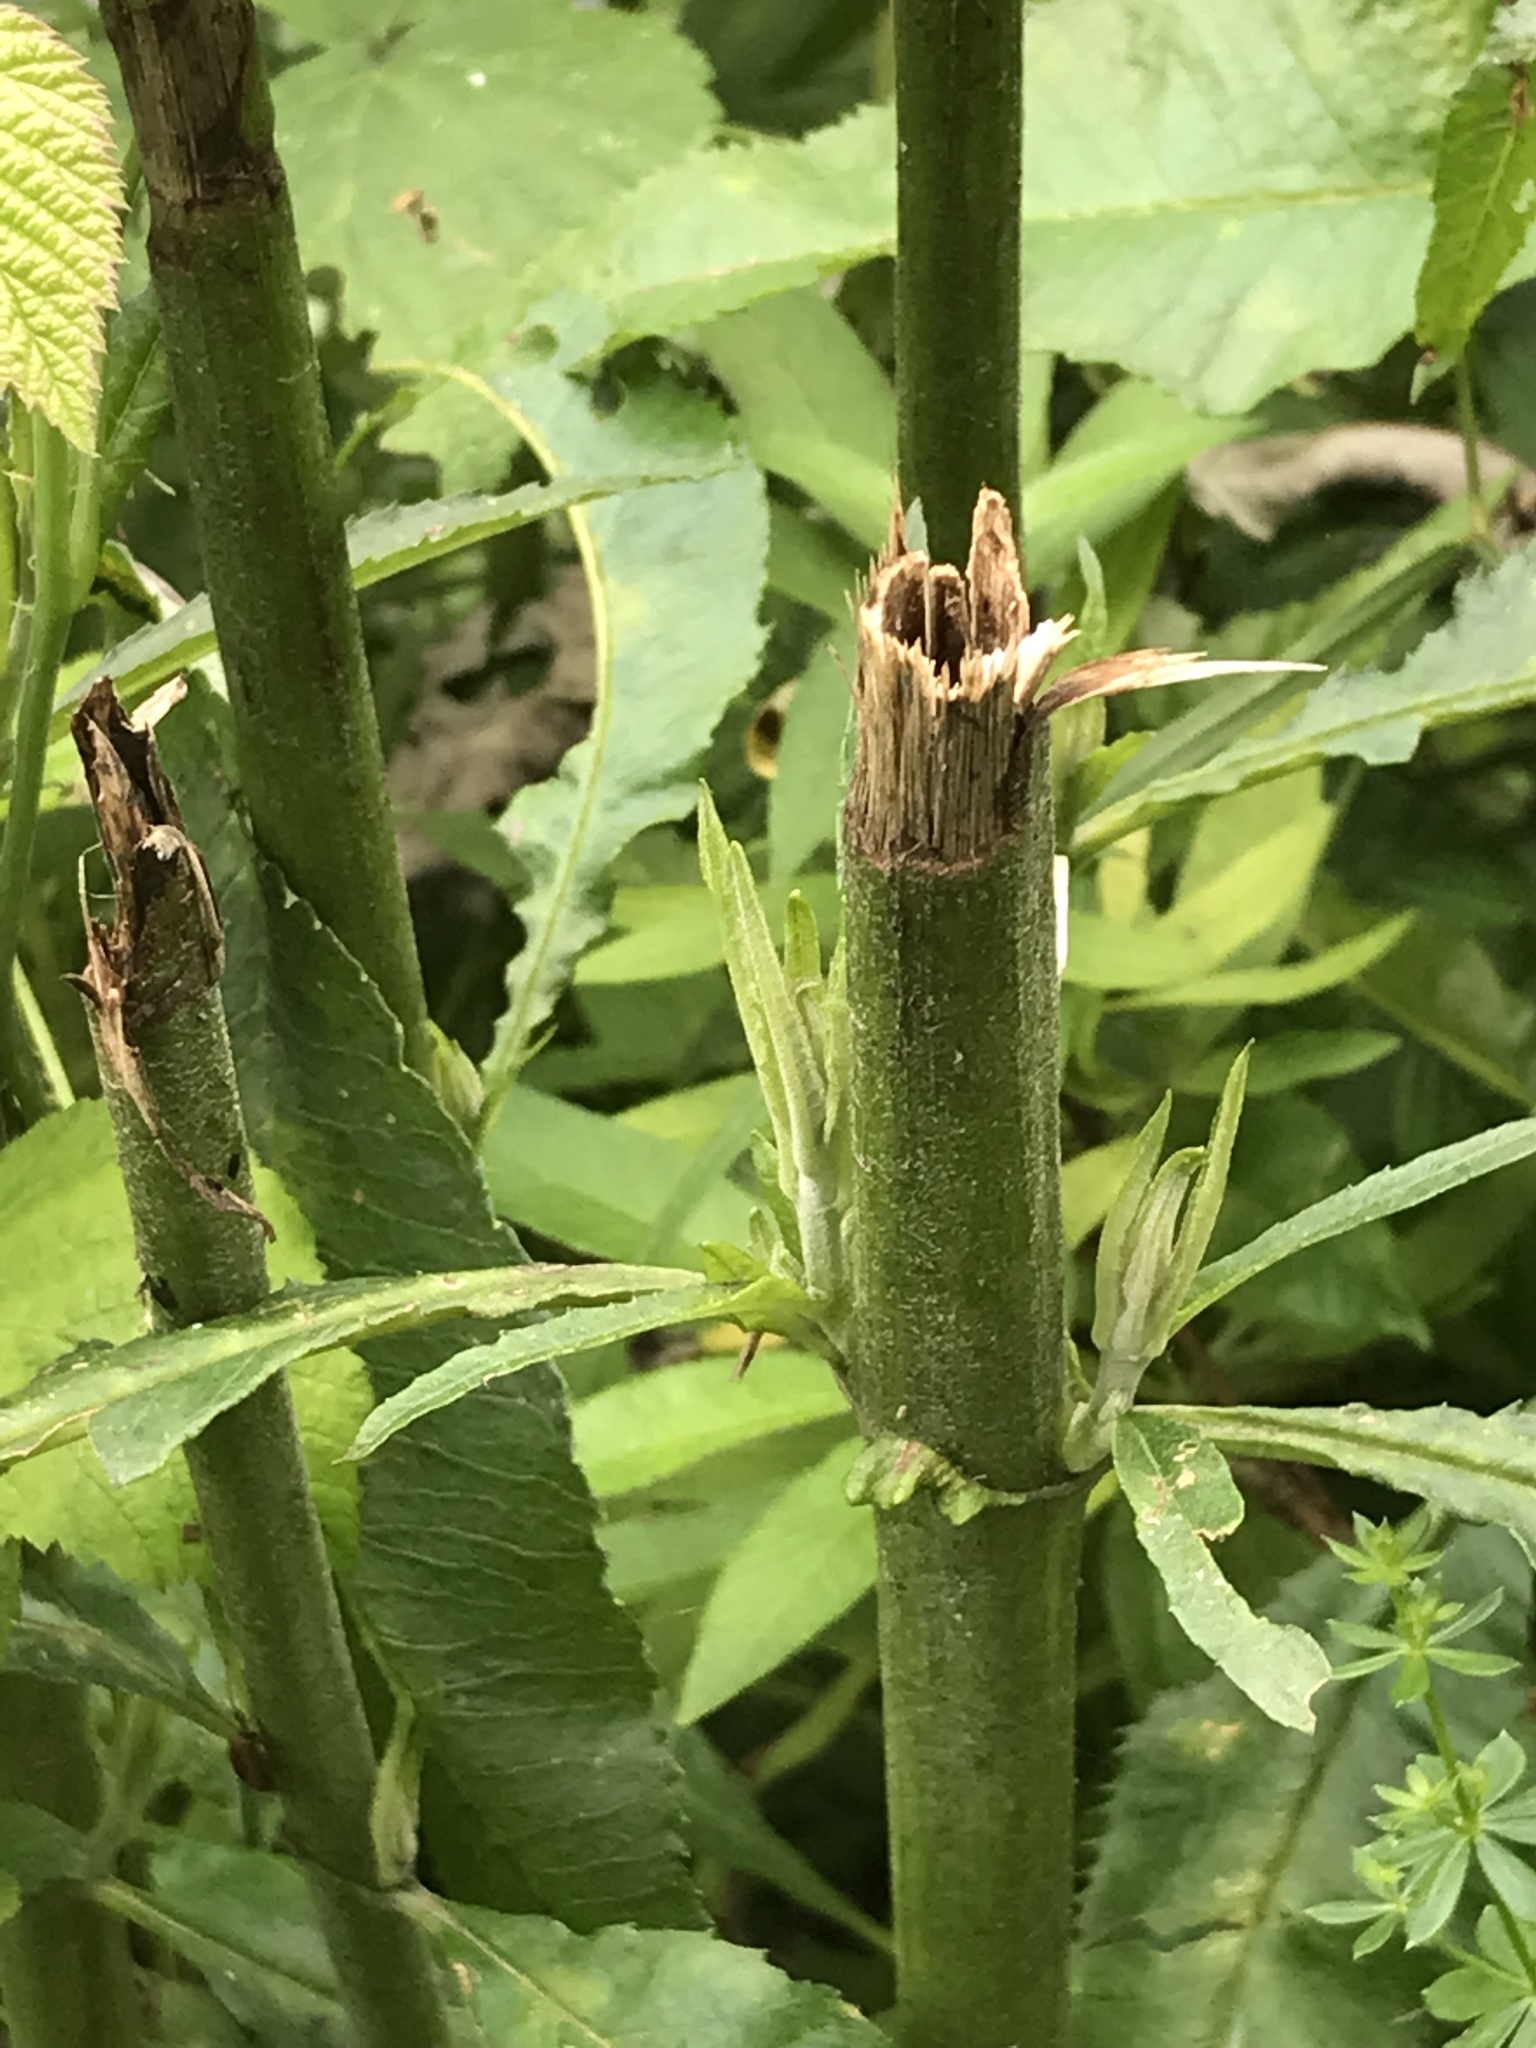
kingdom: Plantae
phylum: Tracheophyta
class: Liliopsida
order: Poales
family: Poaceae
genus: Phyllostachys
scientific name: Phyllostachys aurea
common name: Golden bamboo
